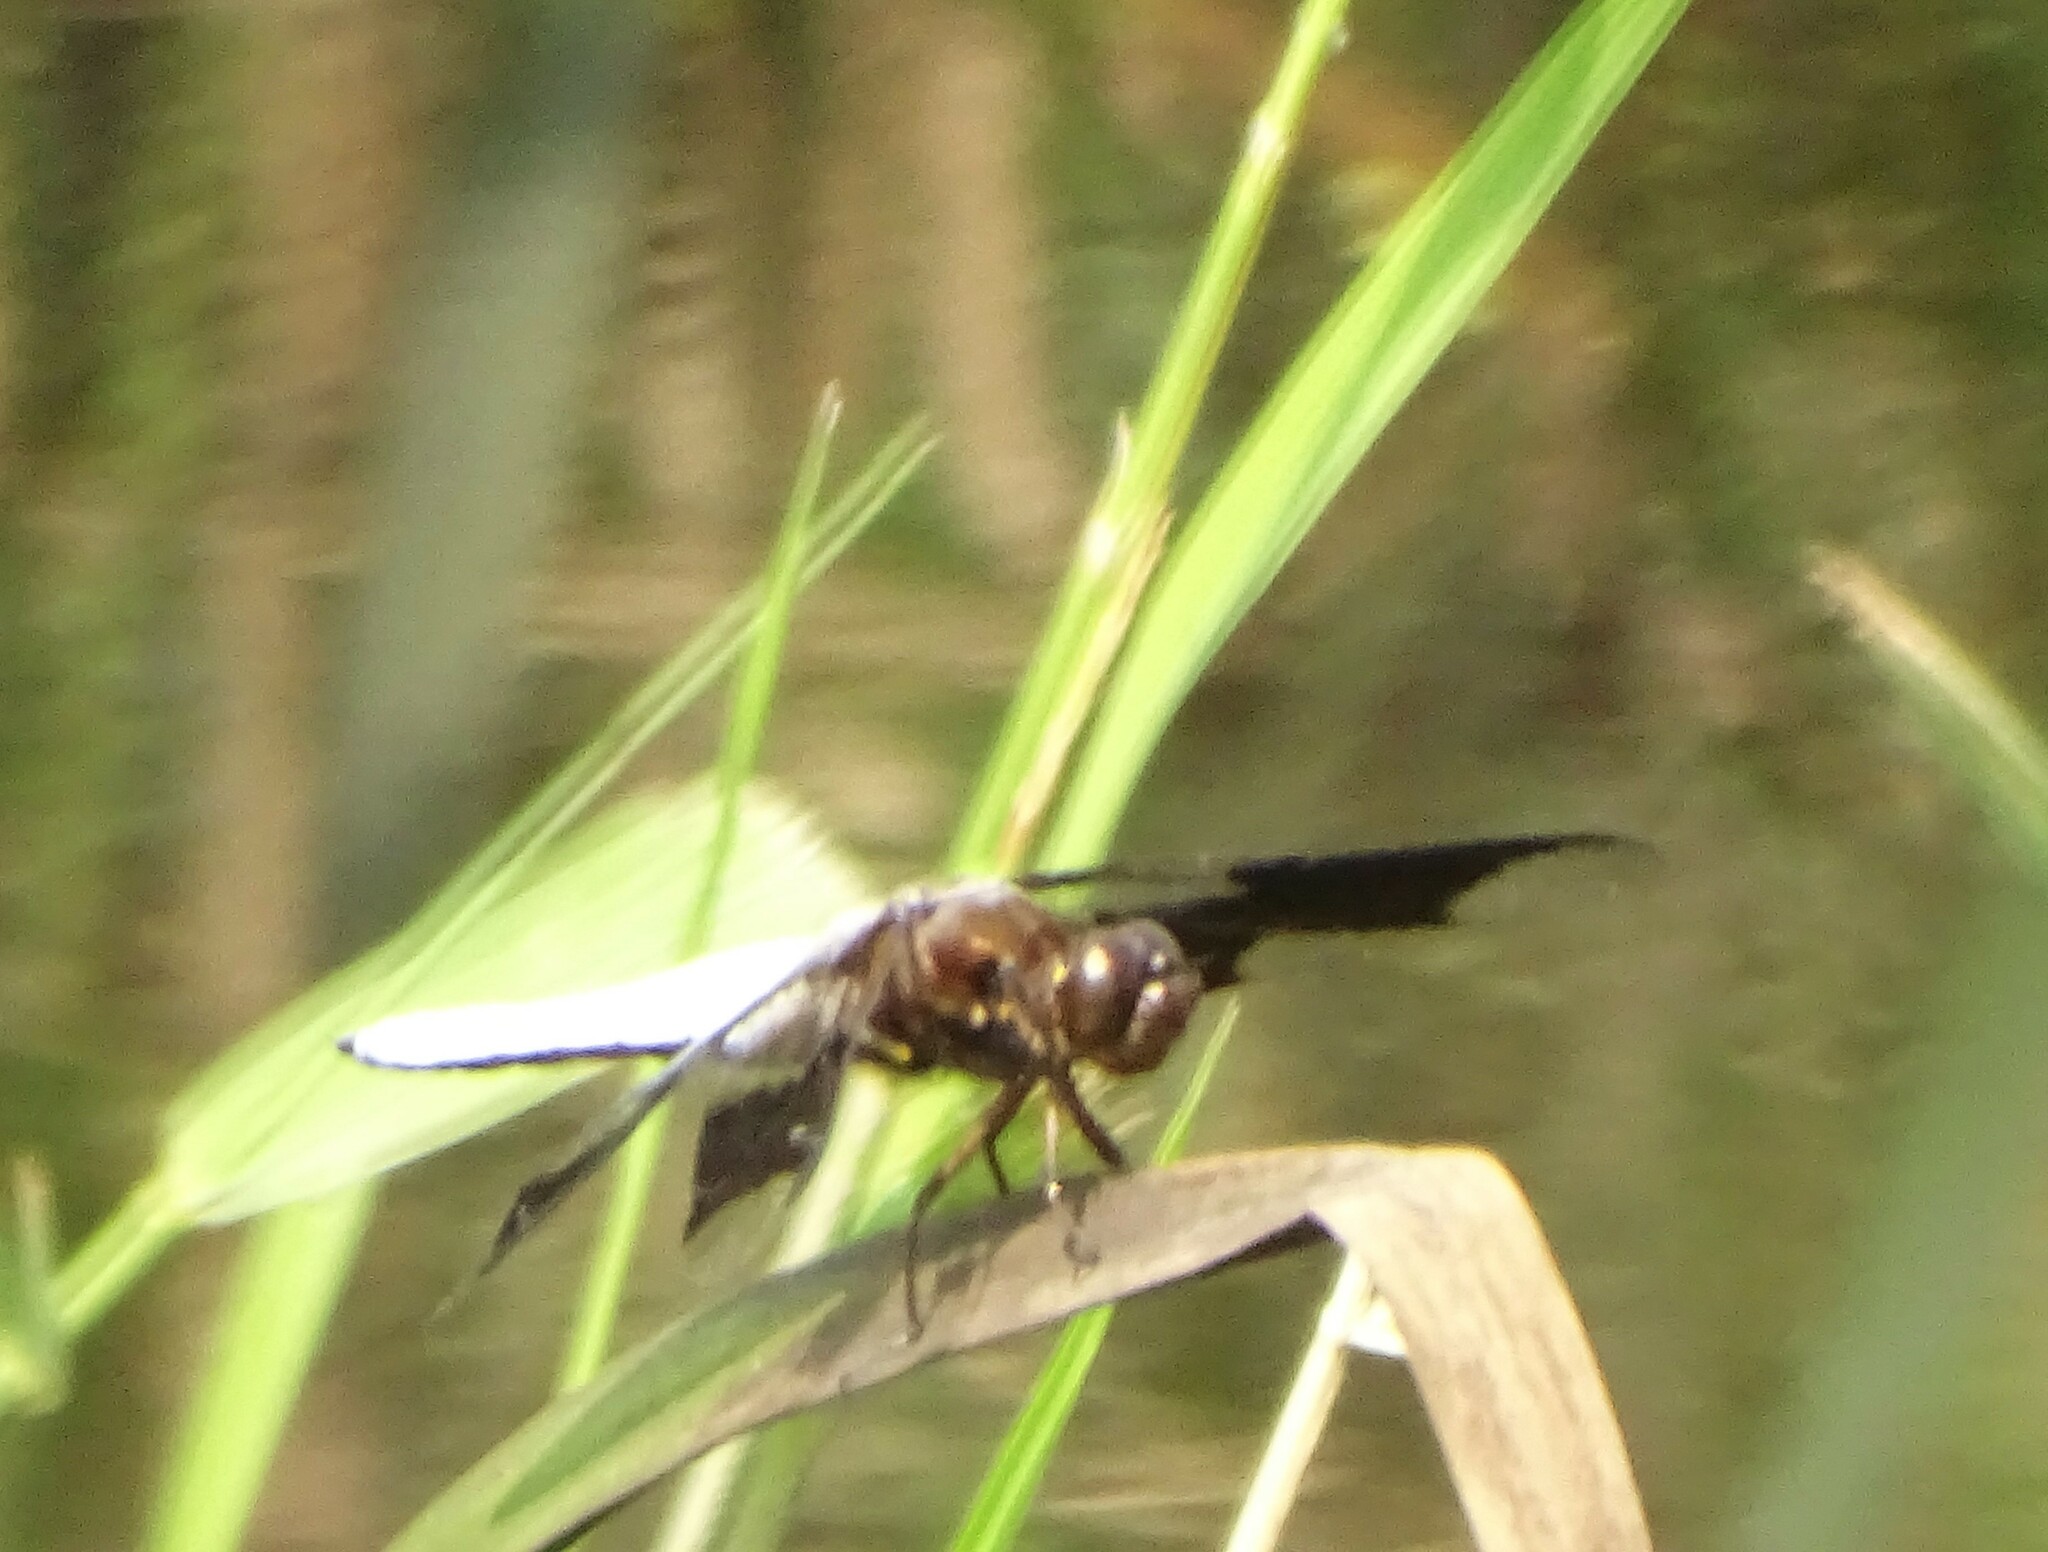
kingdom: Animalia
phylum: Arthropoda
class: Insecta
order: Odonata
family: Libellulidae
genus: Plathemis
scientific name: Plathemis lydia
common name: Common whitetail
